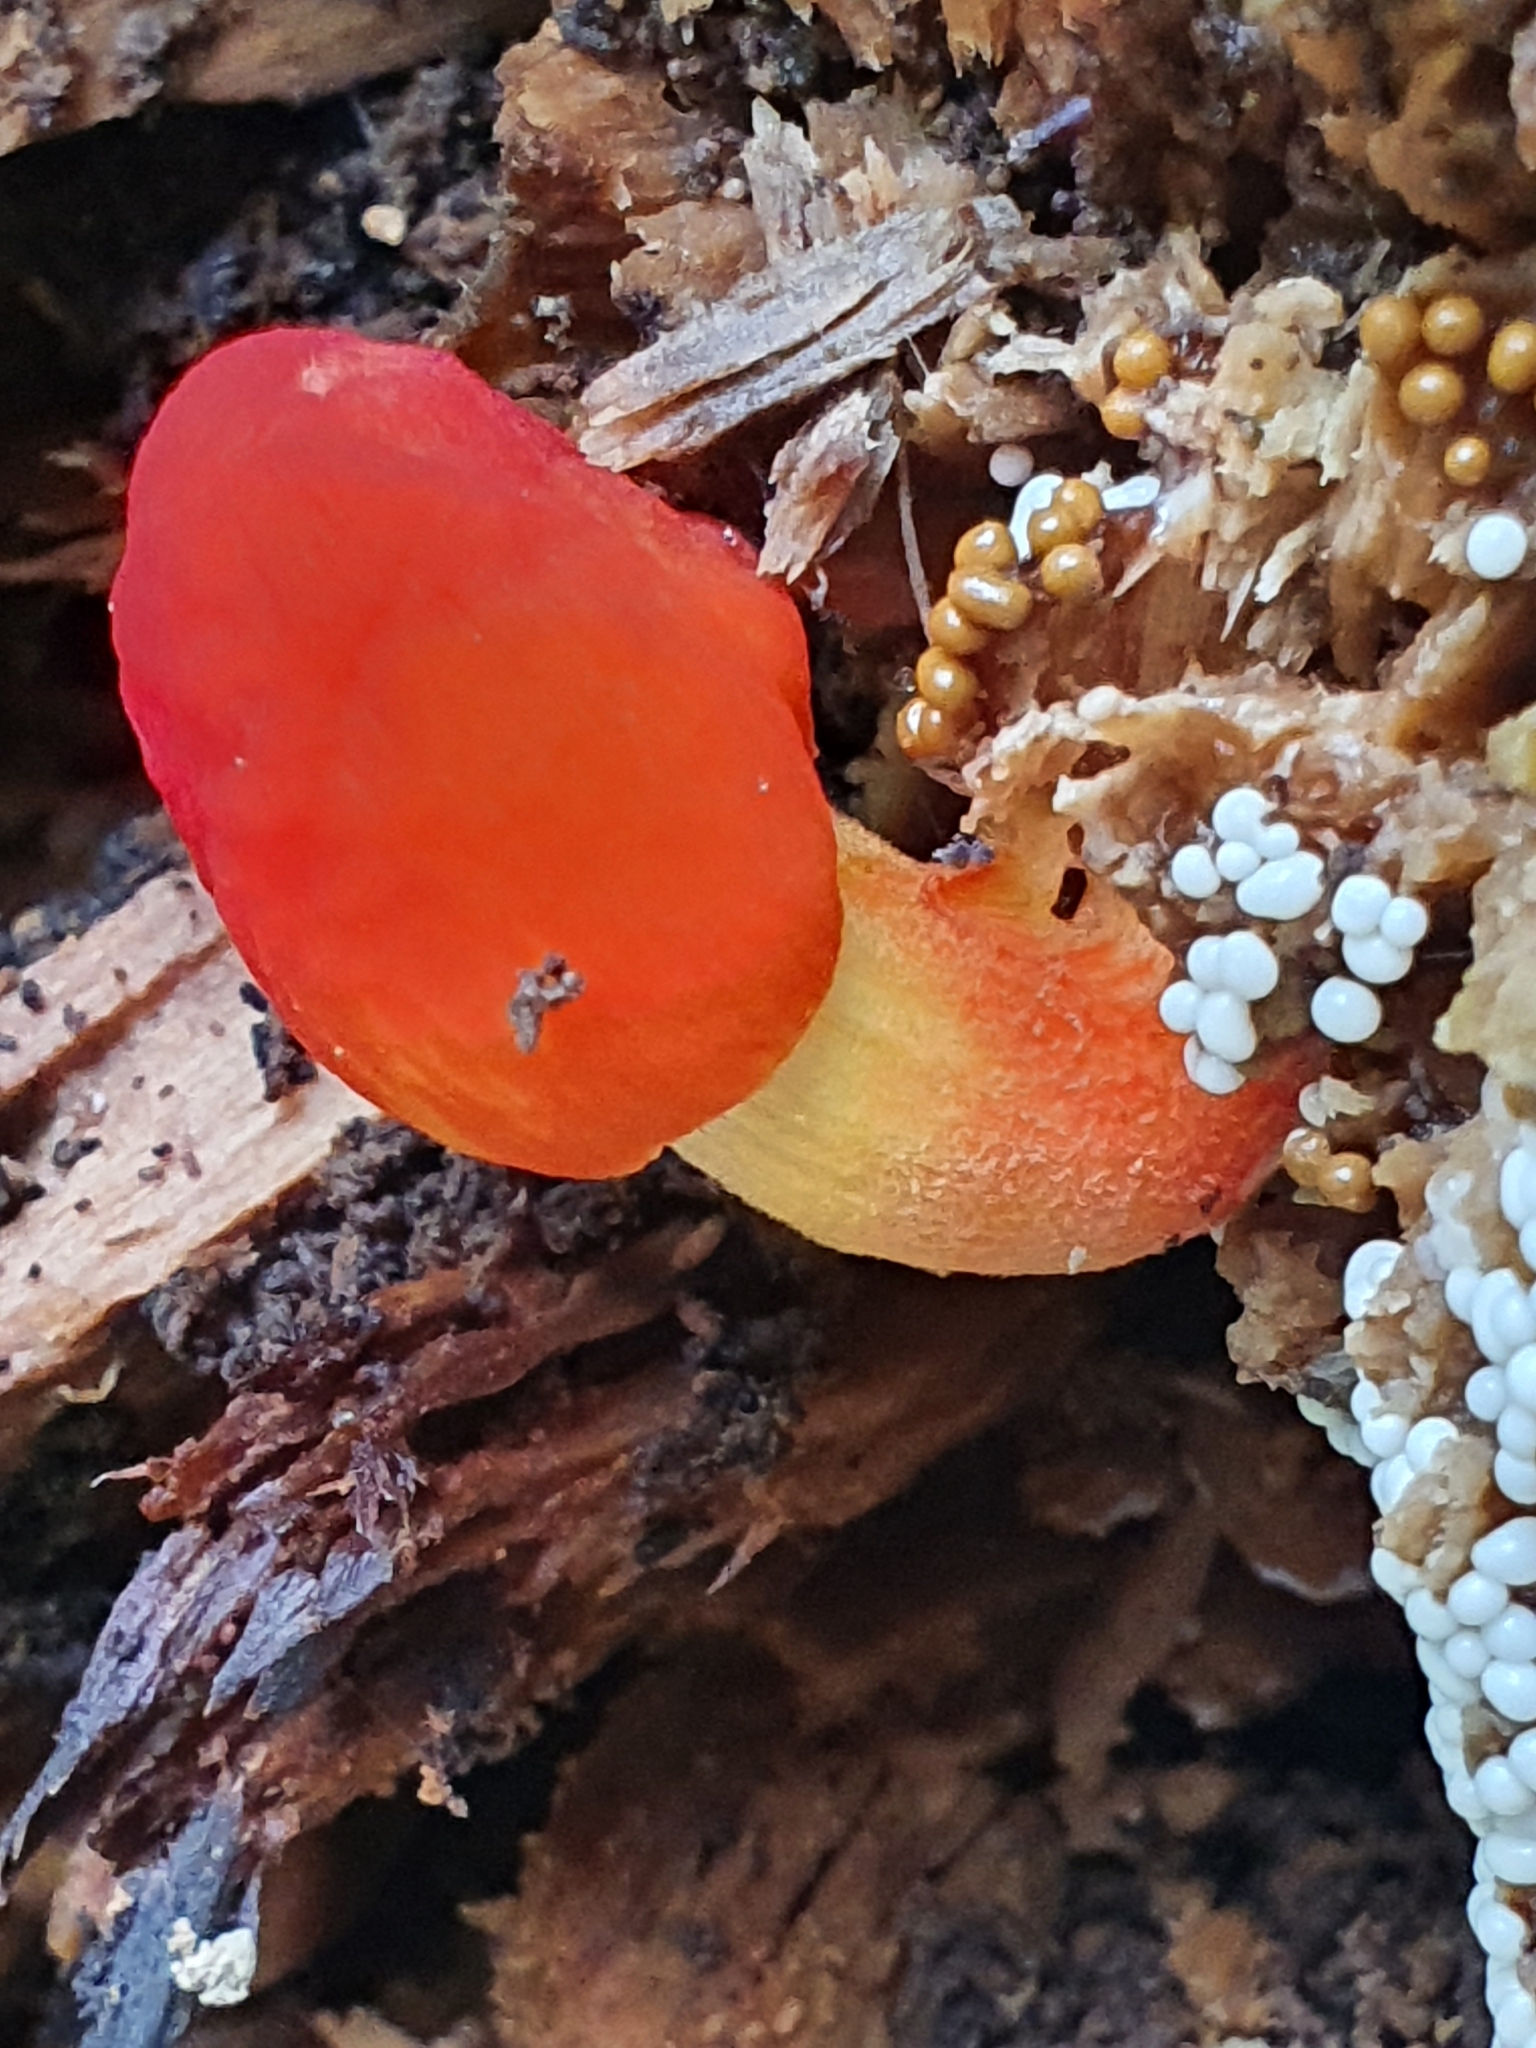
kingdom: Fungi
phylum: Basidiomycota
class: Agaricomycetes
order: Agaricales
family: Pluteaceae
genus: Pluteus
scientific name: Pluteus aurantiorugosus
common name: Flame shield
